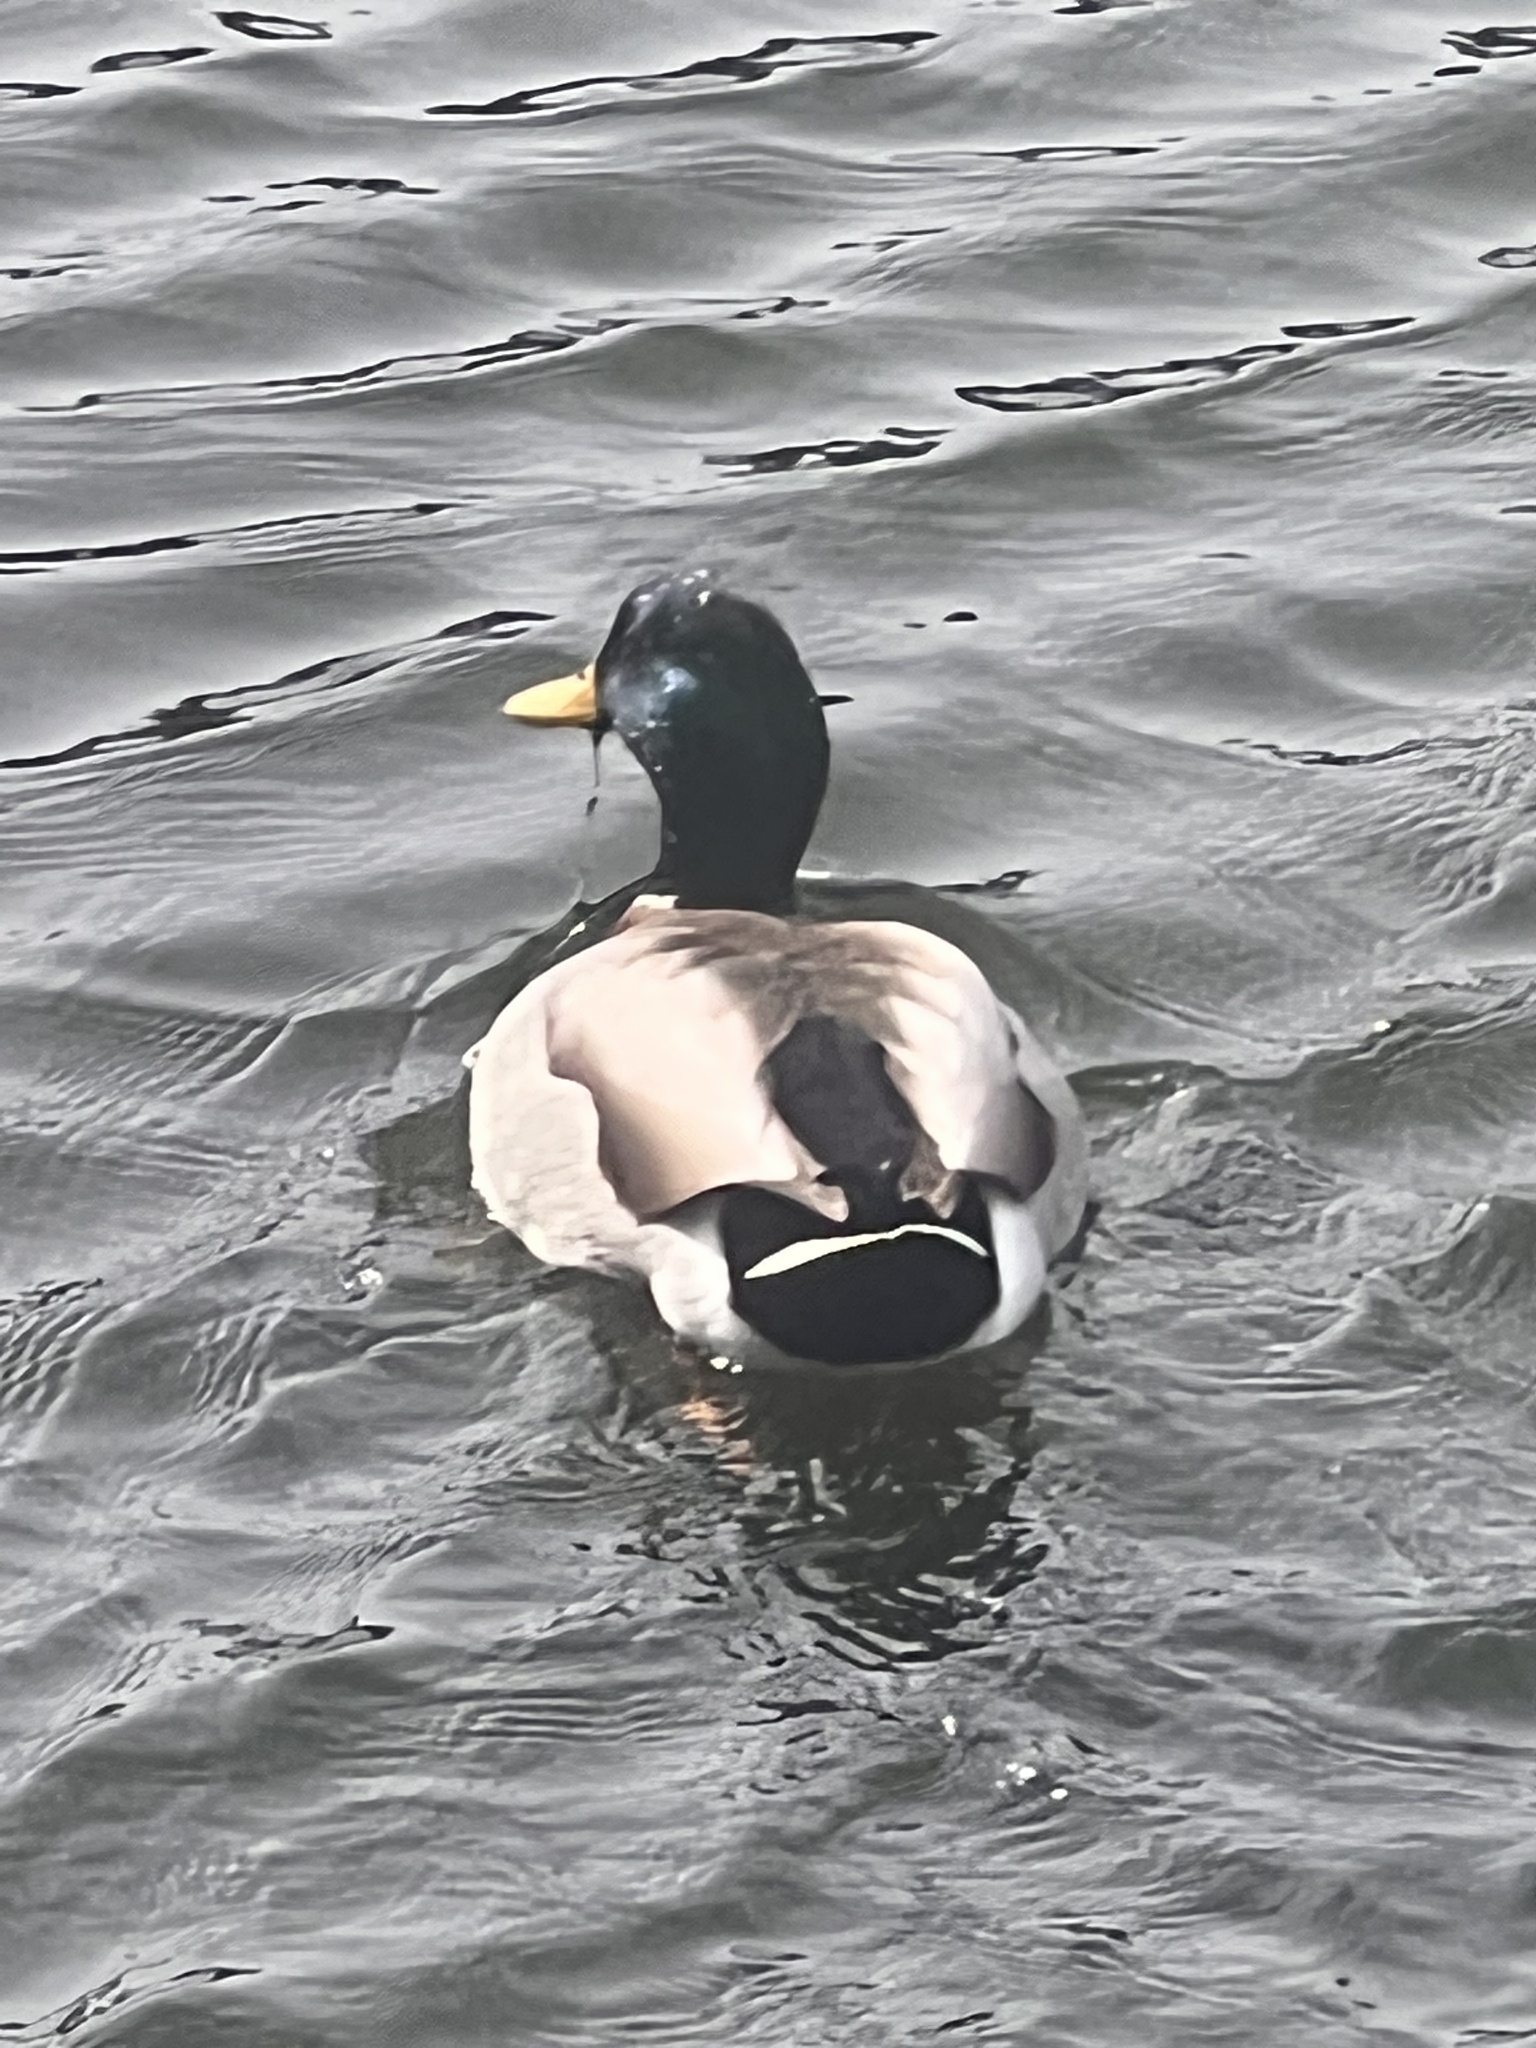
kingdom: Animalia
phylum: Chordata
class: Aves
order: Anseriformes
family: Anatidae
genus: Anas
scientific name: Anas platyrhynchos
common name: Mallard
